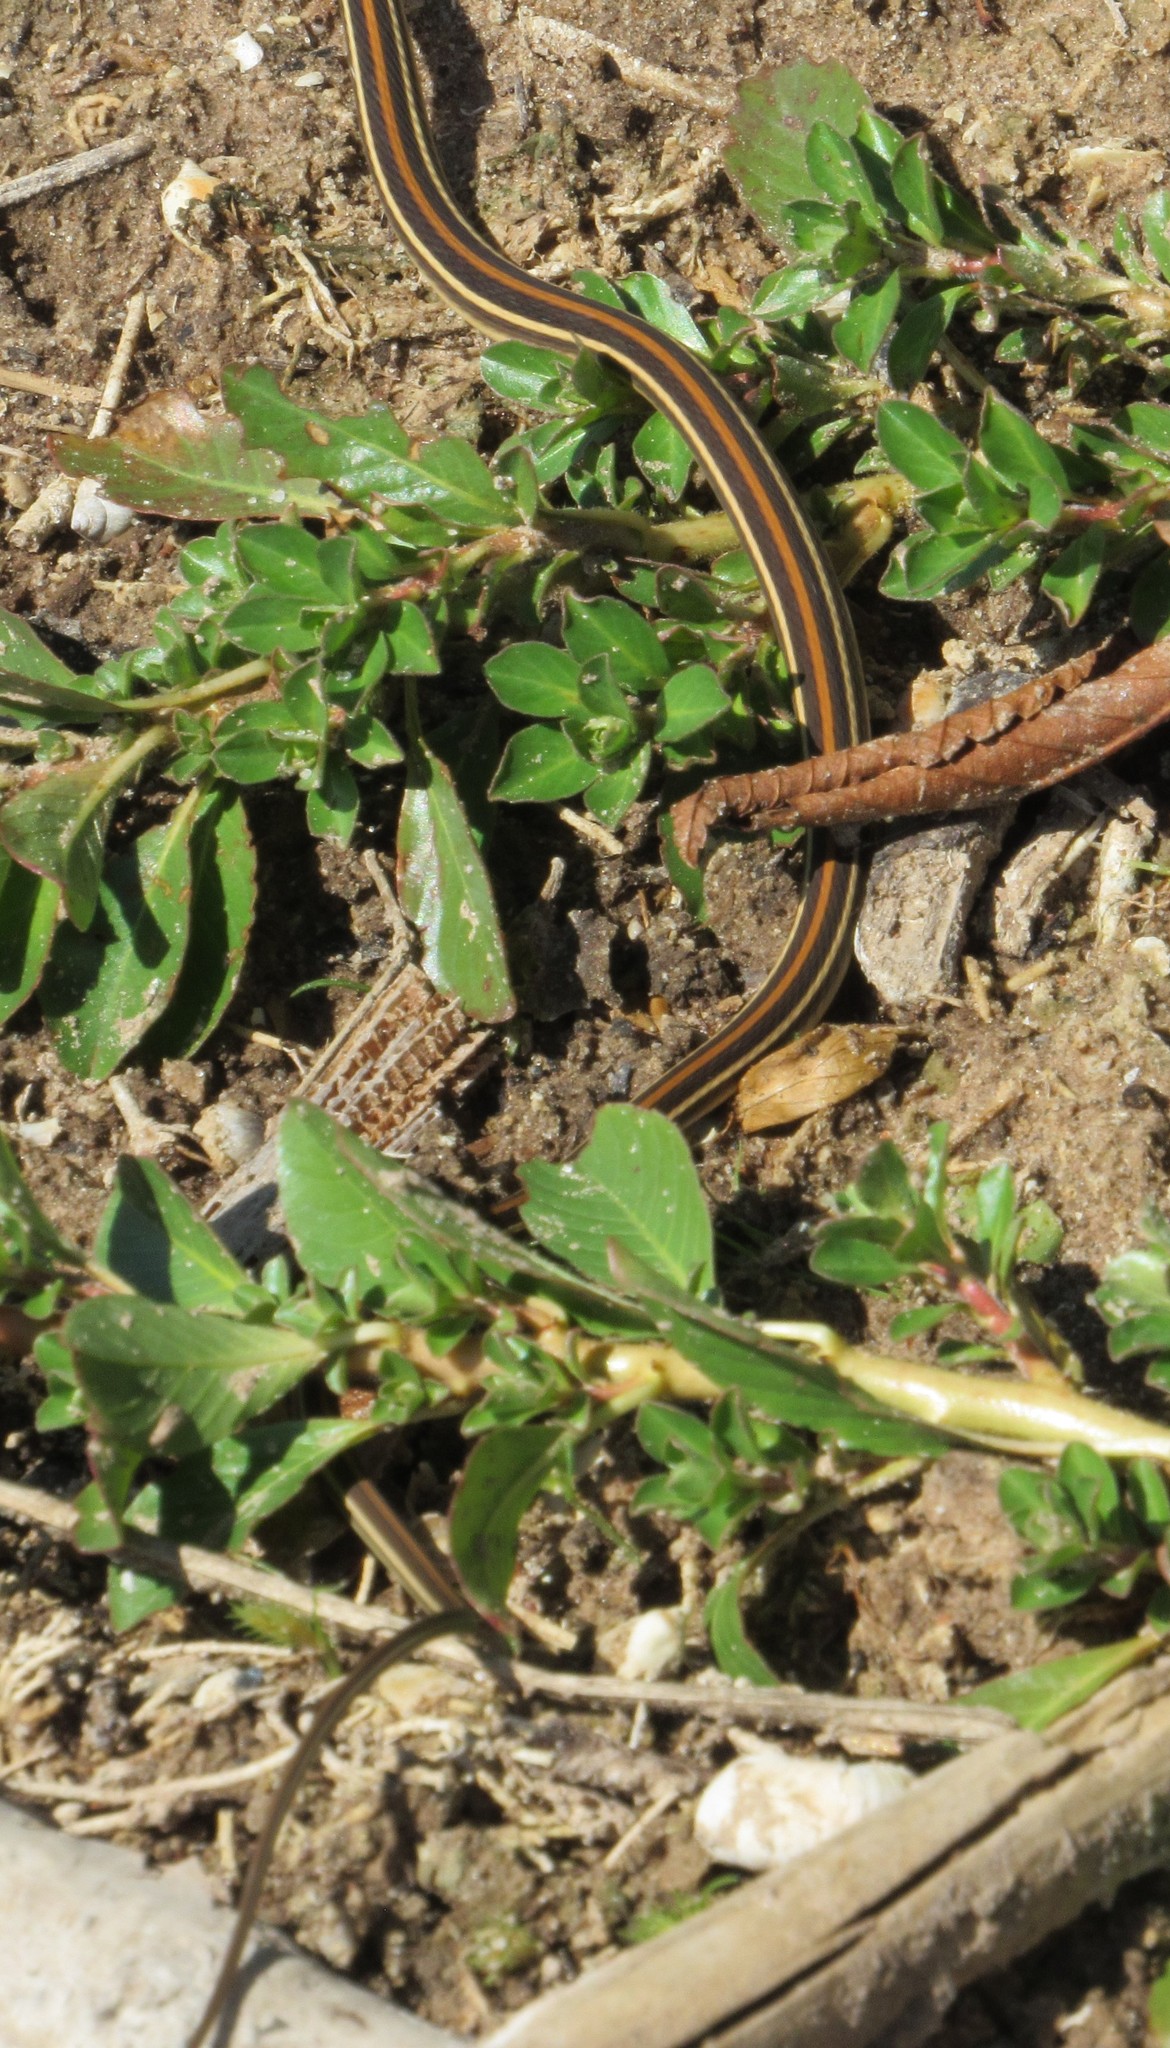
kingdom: Animalia
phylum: Chordata
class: Squamata
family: Colubridae
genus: Thamnophis
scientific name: Thamnophis proximus
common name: Western ribbon snake
